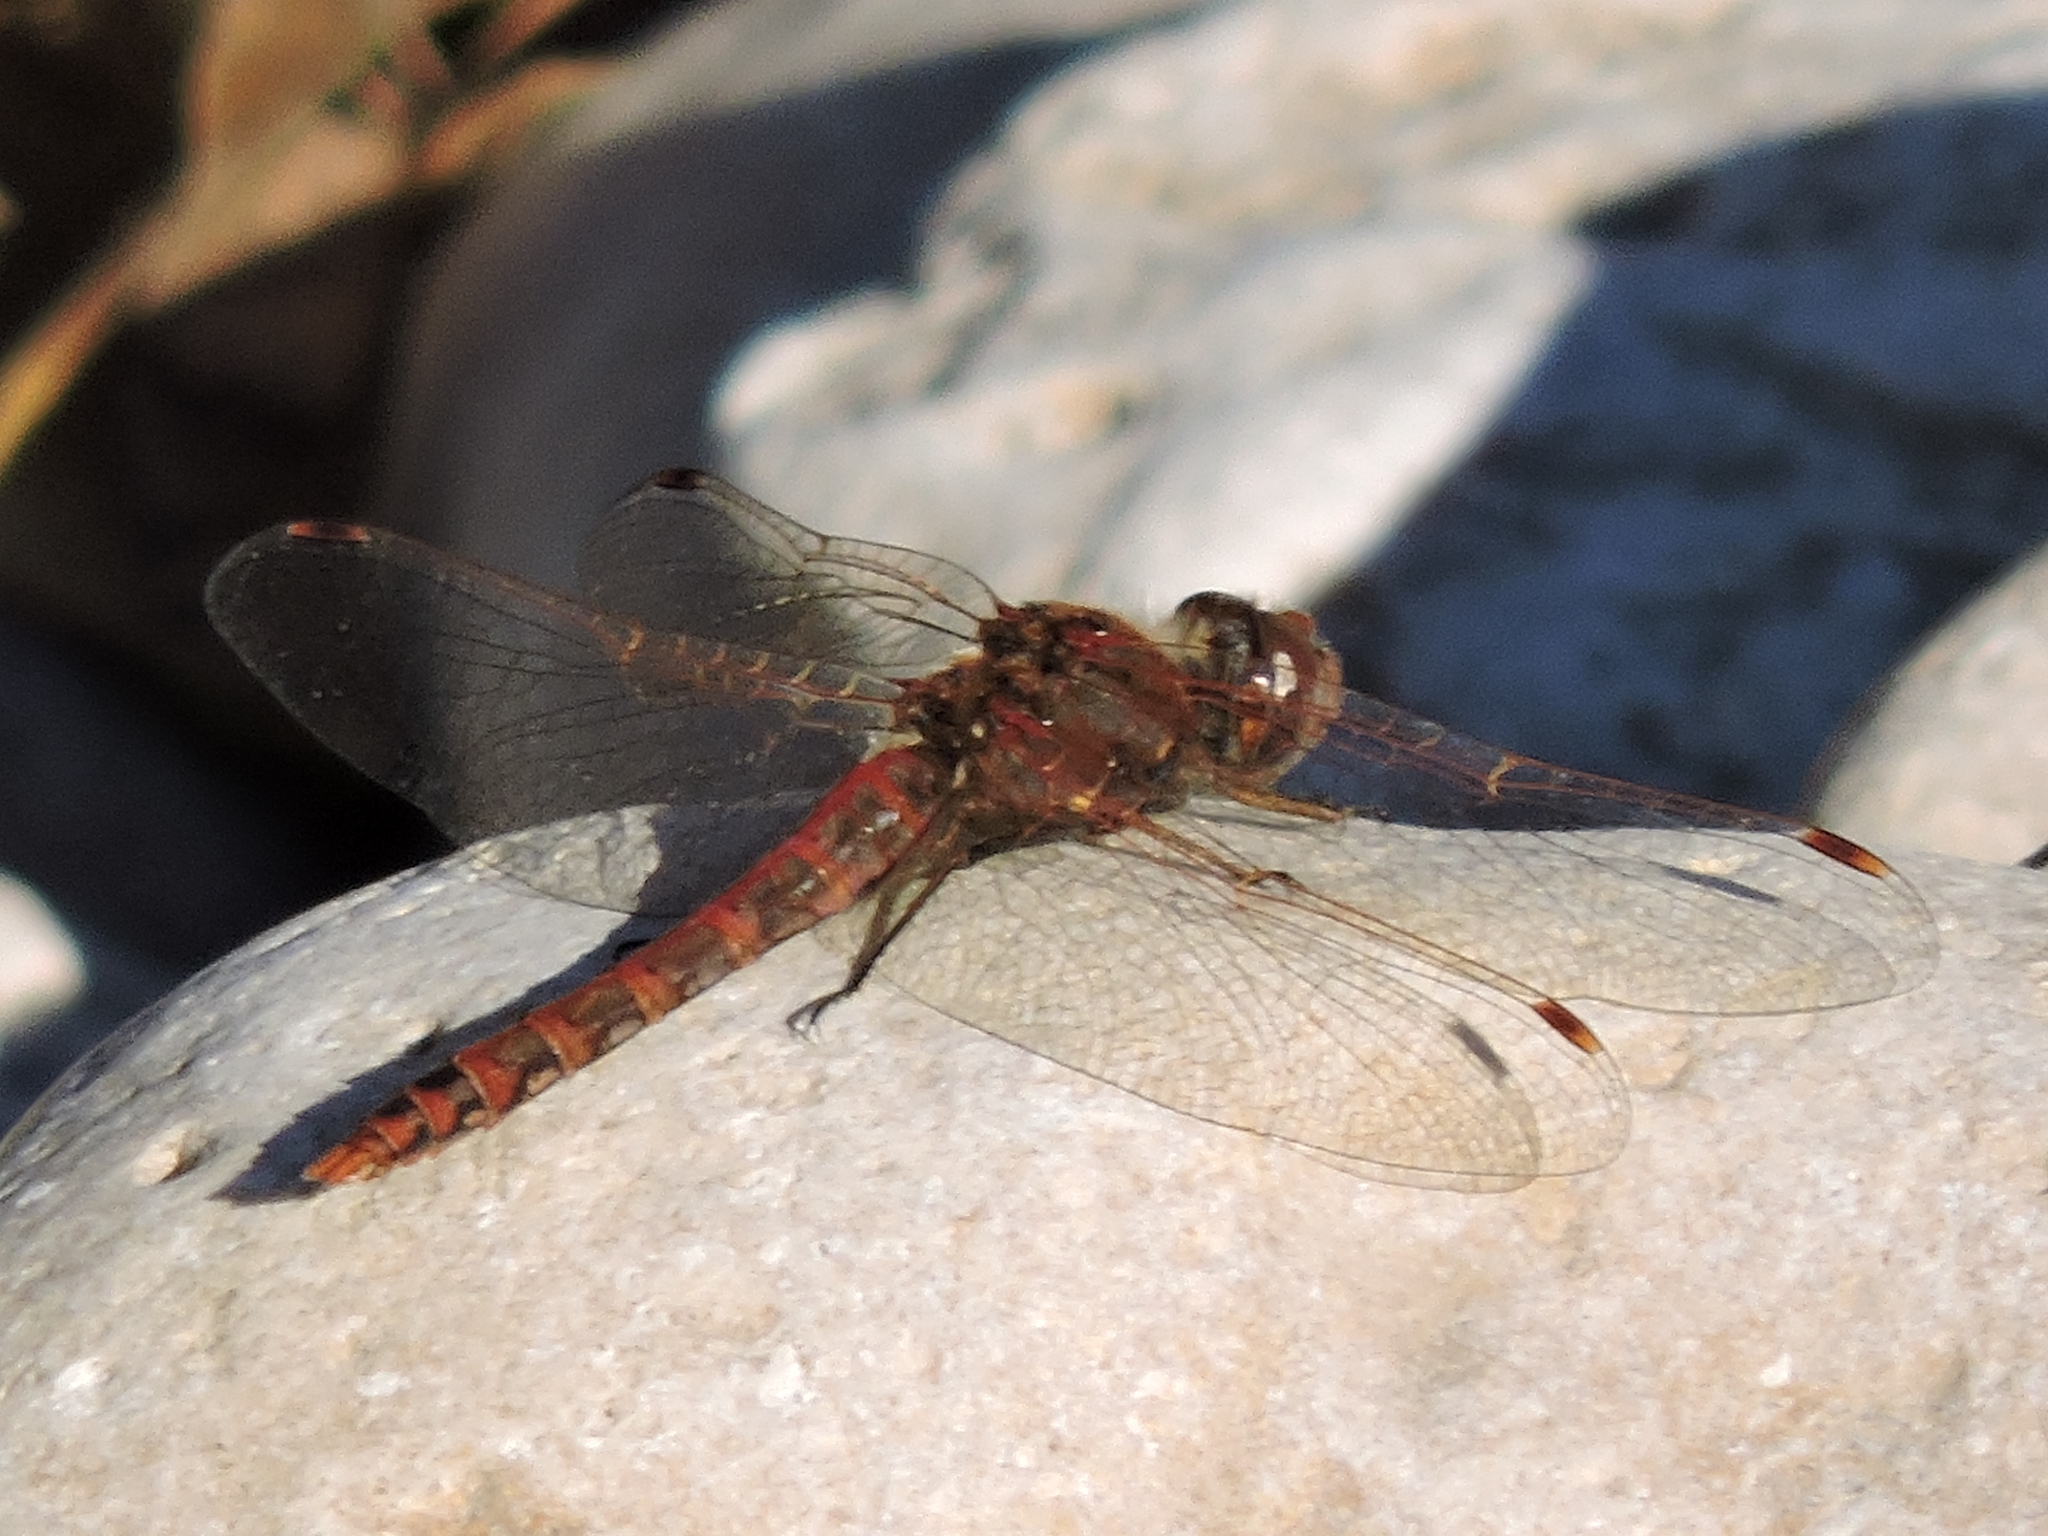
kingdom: Animalia
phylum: Arthropoda
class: Insecta
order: Odonata
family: Libellulidae
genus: Sympetrum
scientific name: Sympetrum corruptum
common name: Variegated meadowhawk
